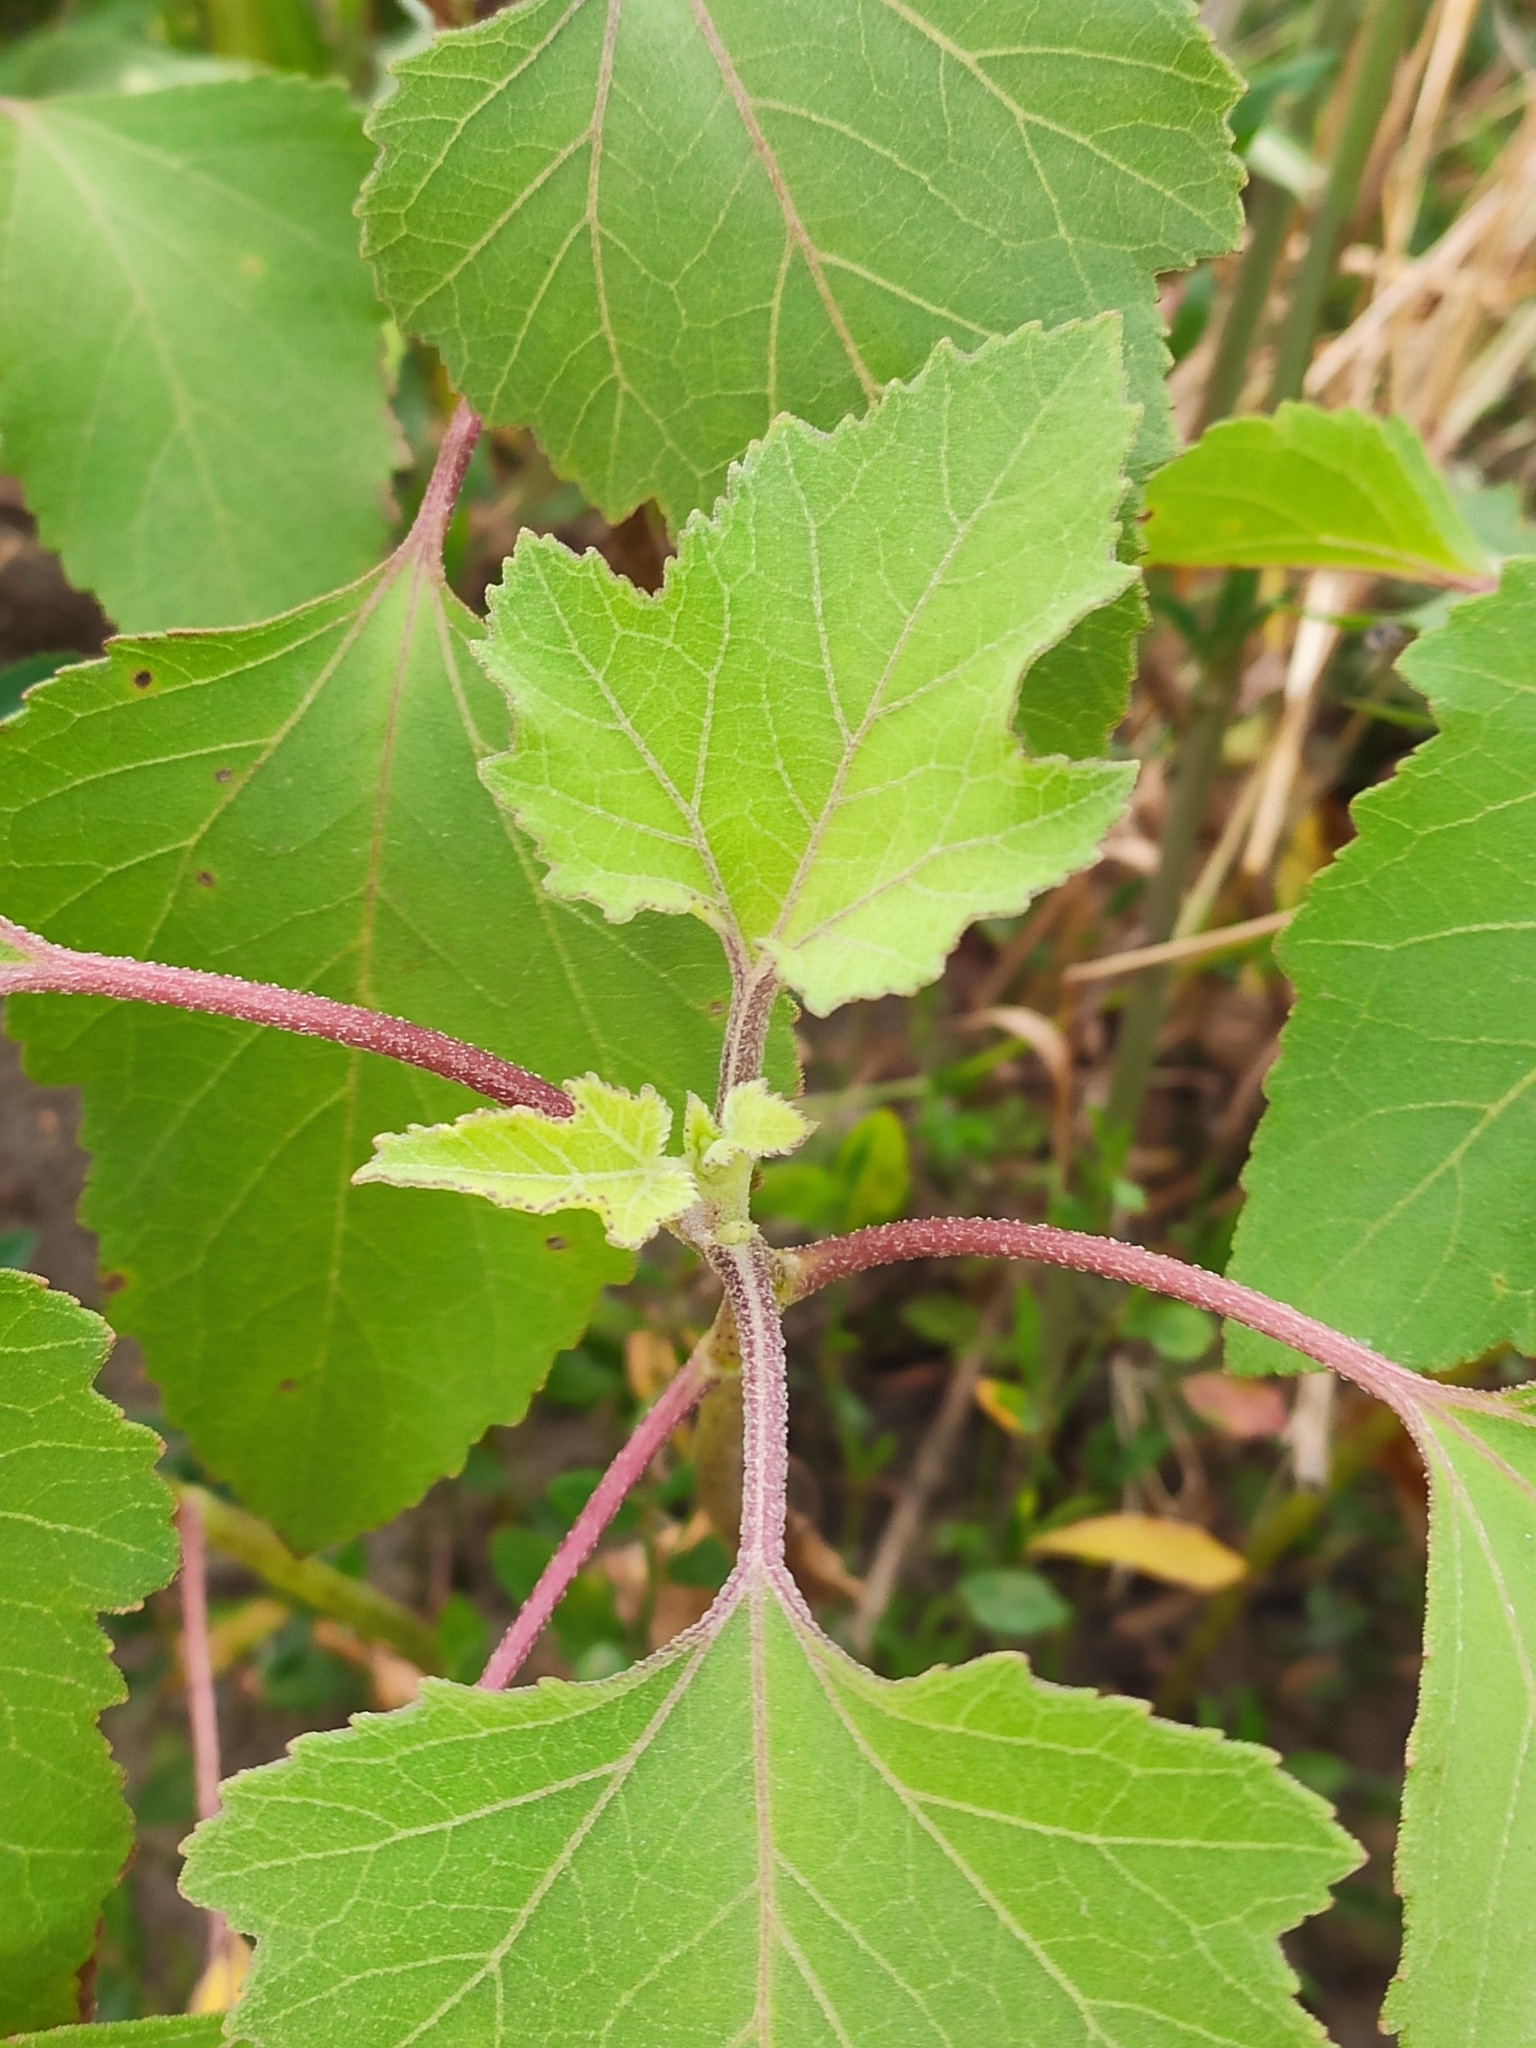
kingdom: Plantae
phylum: Tracheophyta
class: Magnoliopsida
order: Asterales
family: Asteraceae
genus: Xanthium
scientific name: Xanthium orientale
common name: Californian burr
